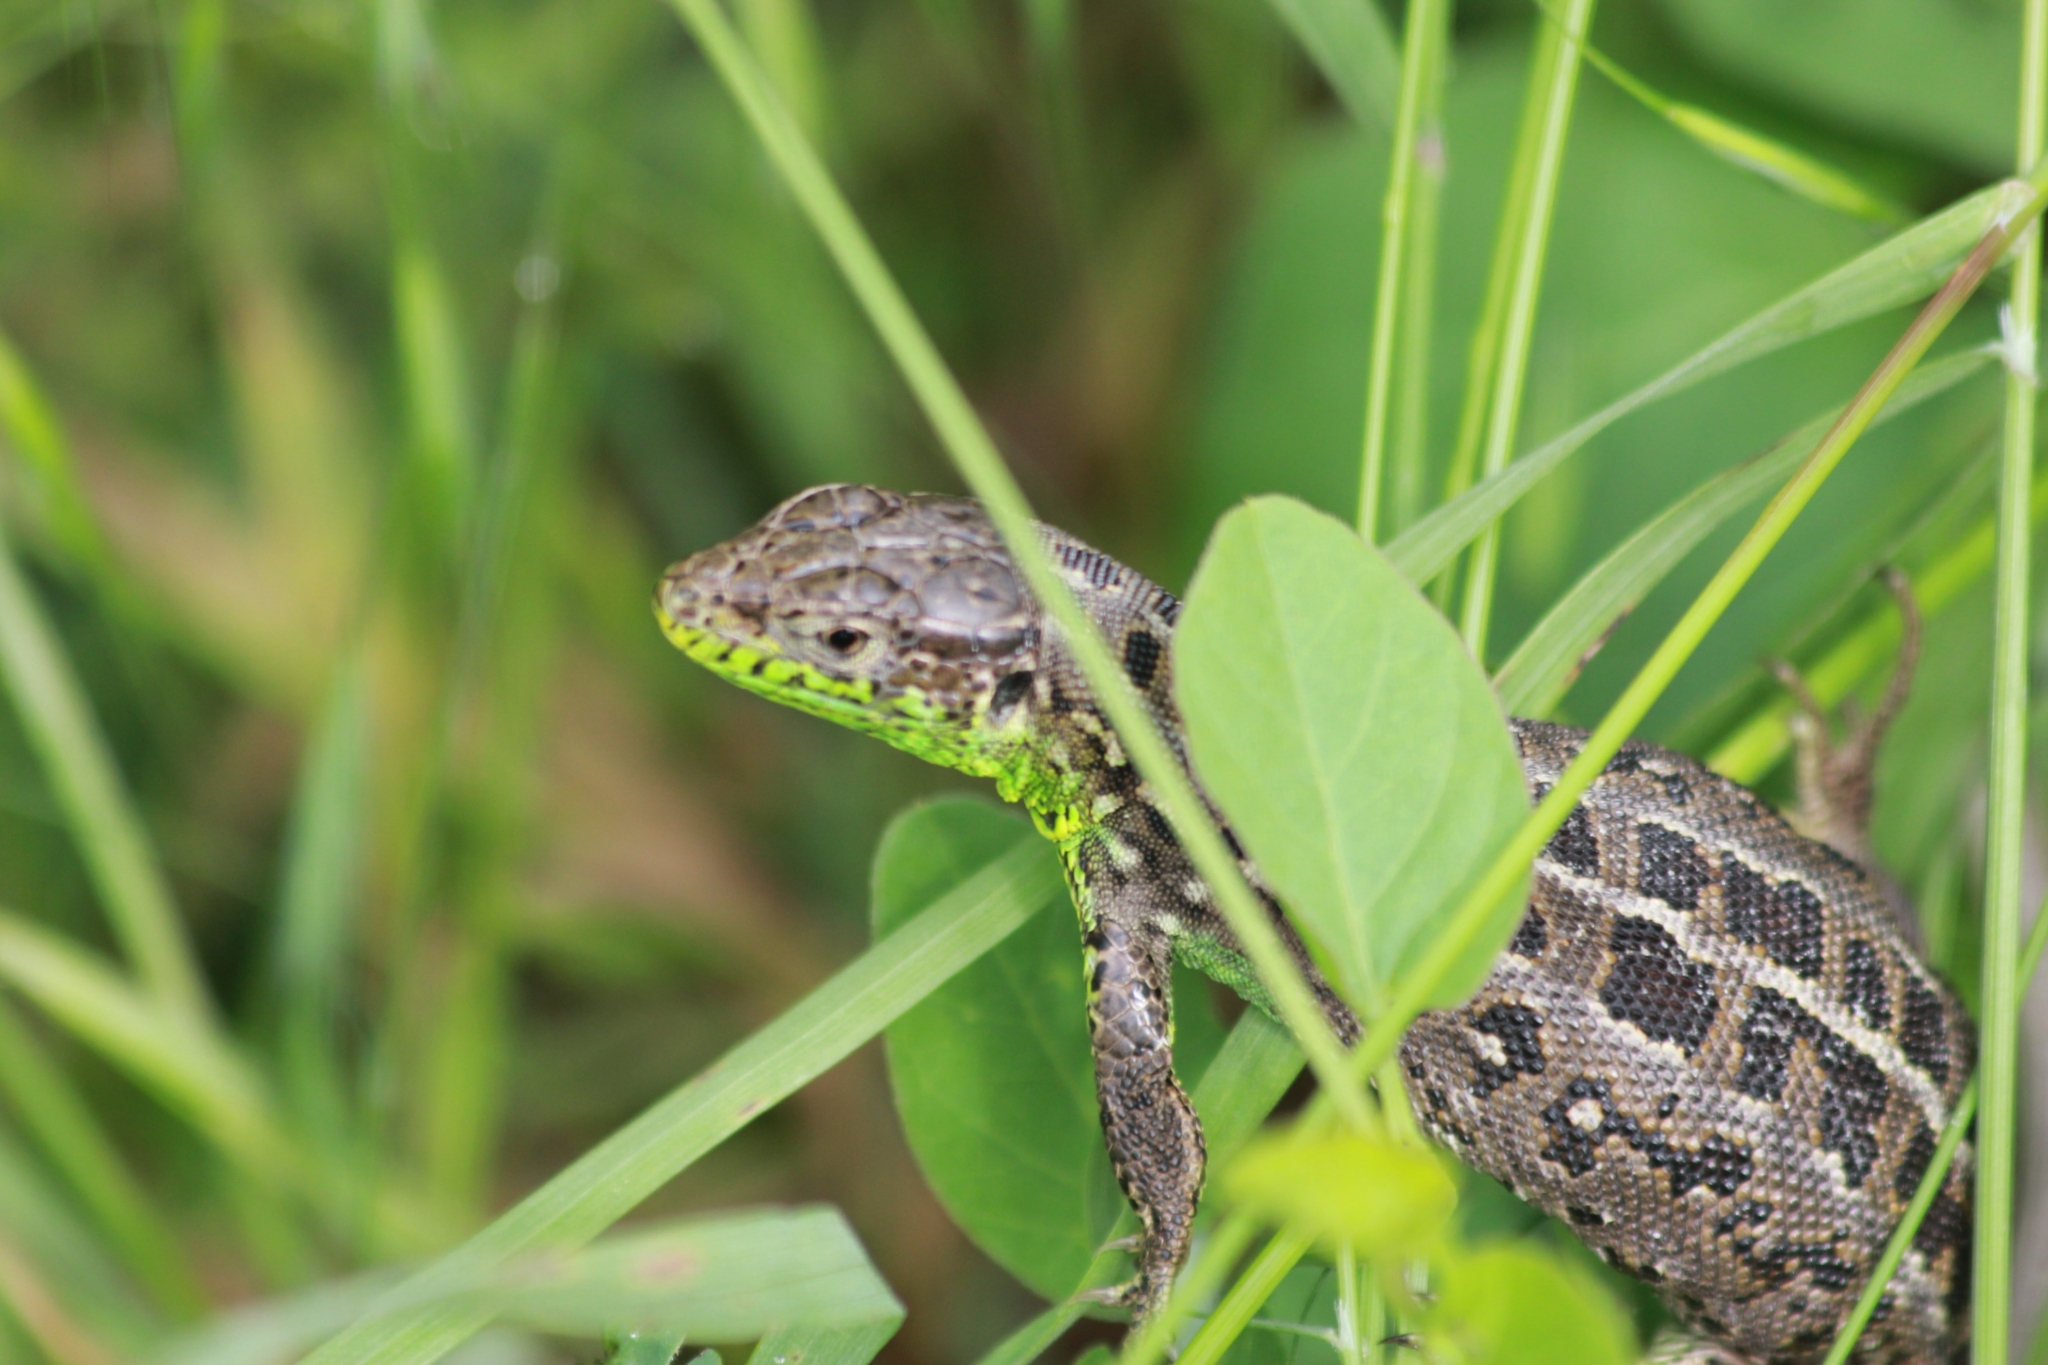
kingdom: Animalia
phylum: Chordata
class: Squamata
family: Lacertidae
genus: Lacerta
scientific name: Lacerta agilis
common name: Sand lizard
